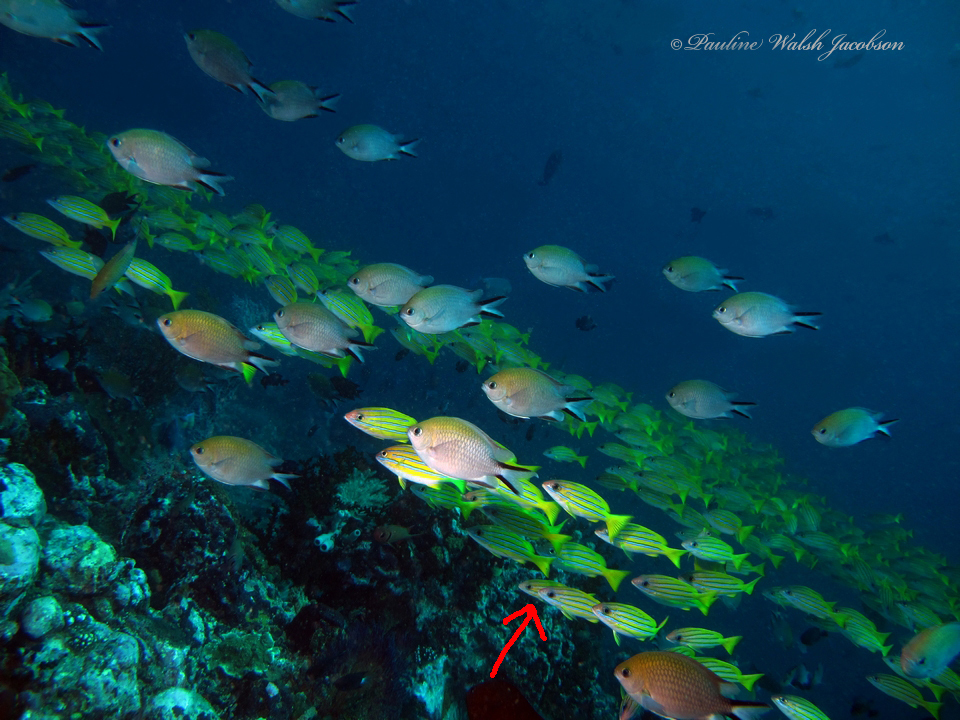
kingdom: Animalia
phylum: Chordata
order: Perciformes
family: Lutjanidae
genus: Lutjanus
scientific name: Lutjanus kasmira
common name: Common bluestripe snapper
